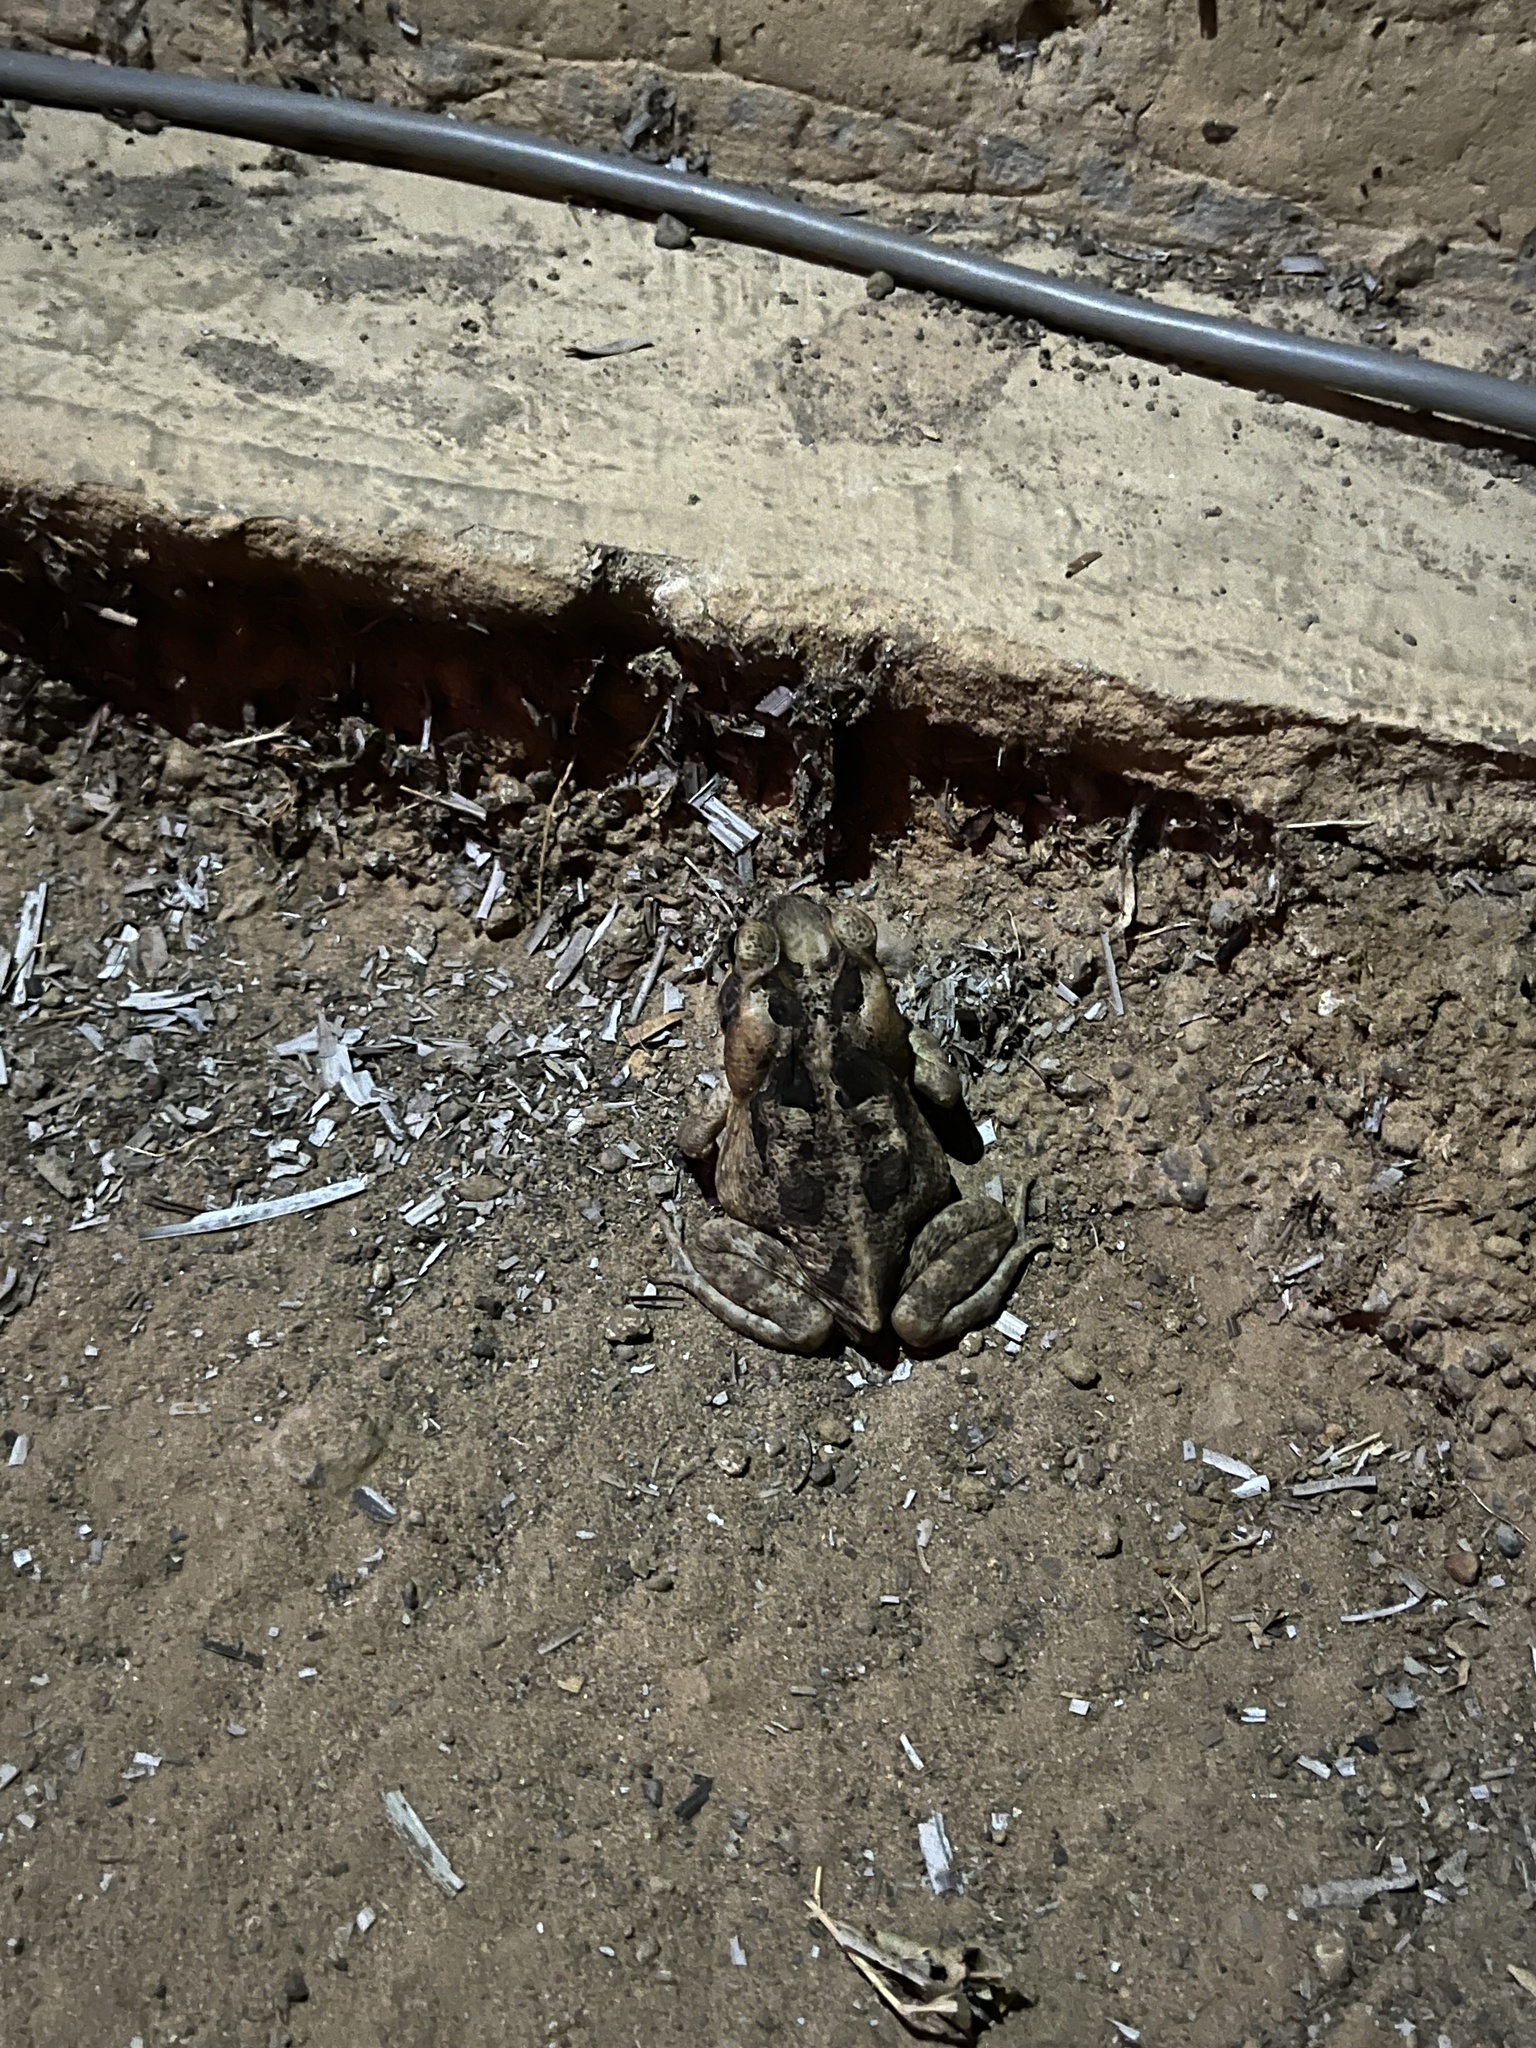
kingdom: Animalia
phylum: Chordata
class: Amphibia
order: Anura
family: Bufonidae
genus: Rhinella
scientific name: Rhinella marina
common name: Cane toad
